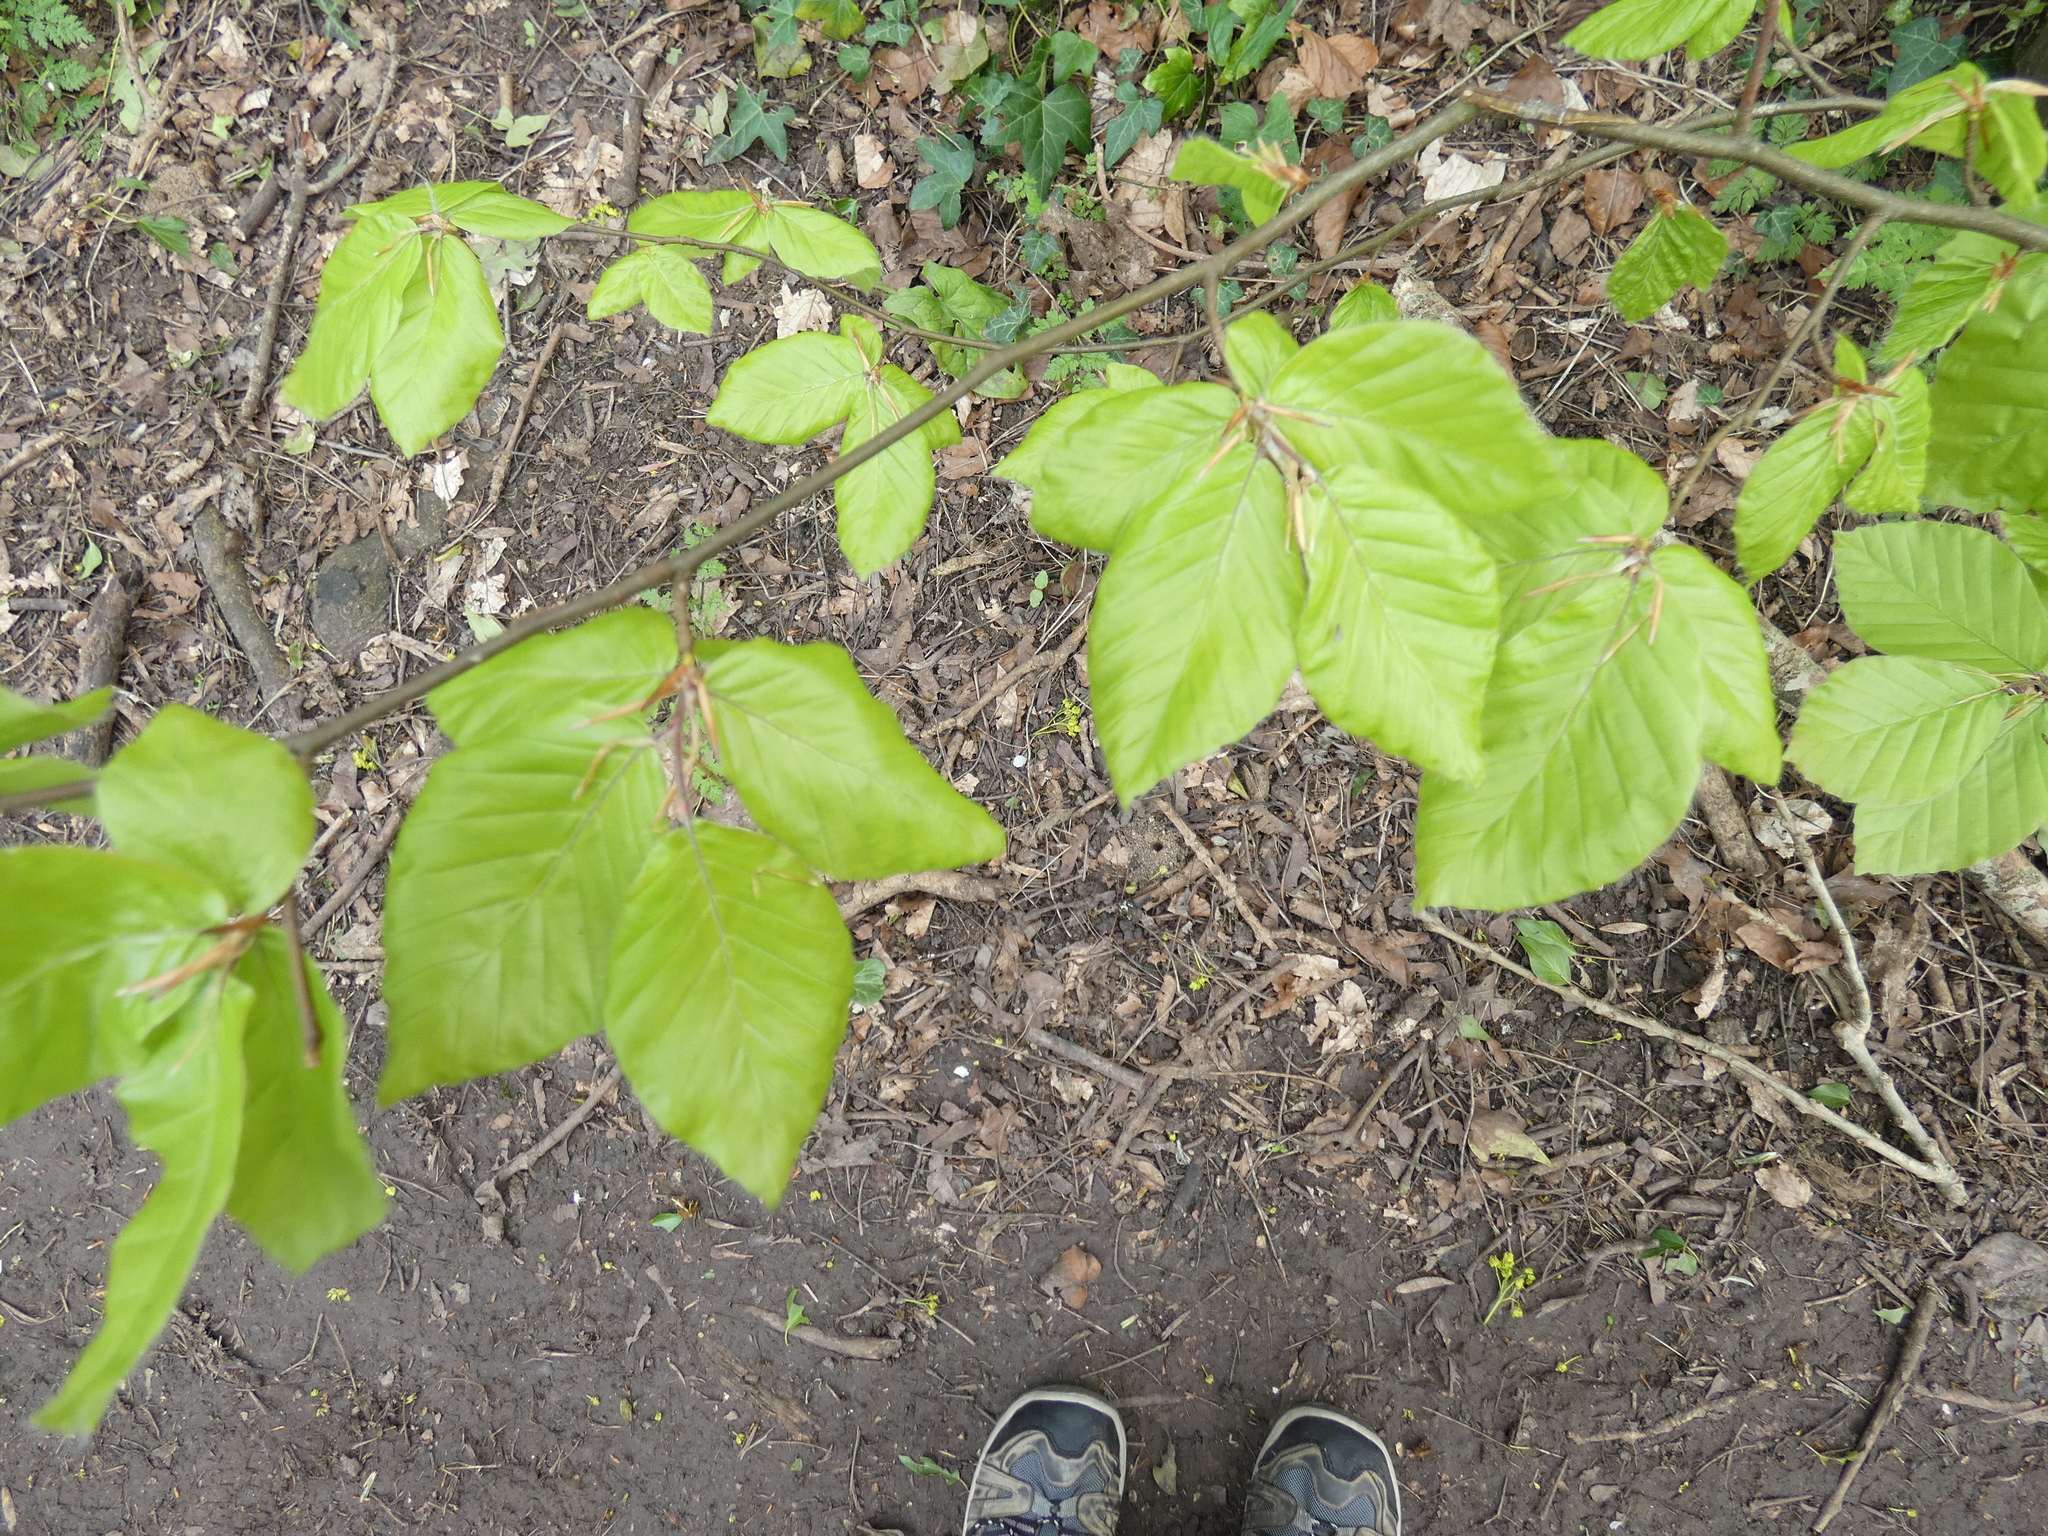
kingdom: Plantae
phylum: Tracheophyta
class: Magnoliopsida
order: Fagales
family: Fagaceae
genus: Fagus
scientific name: Fagus sylvatica
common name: Beech
